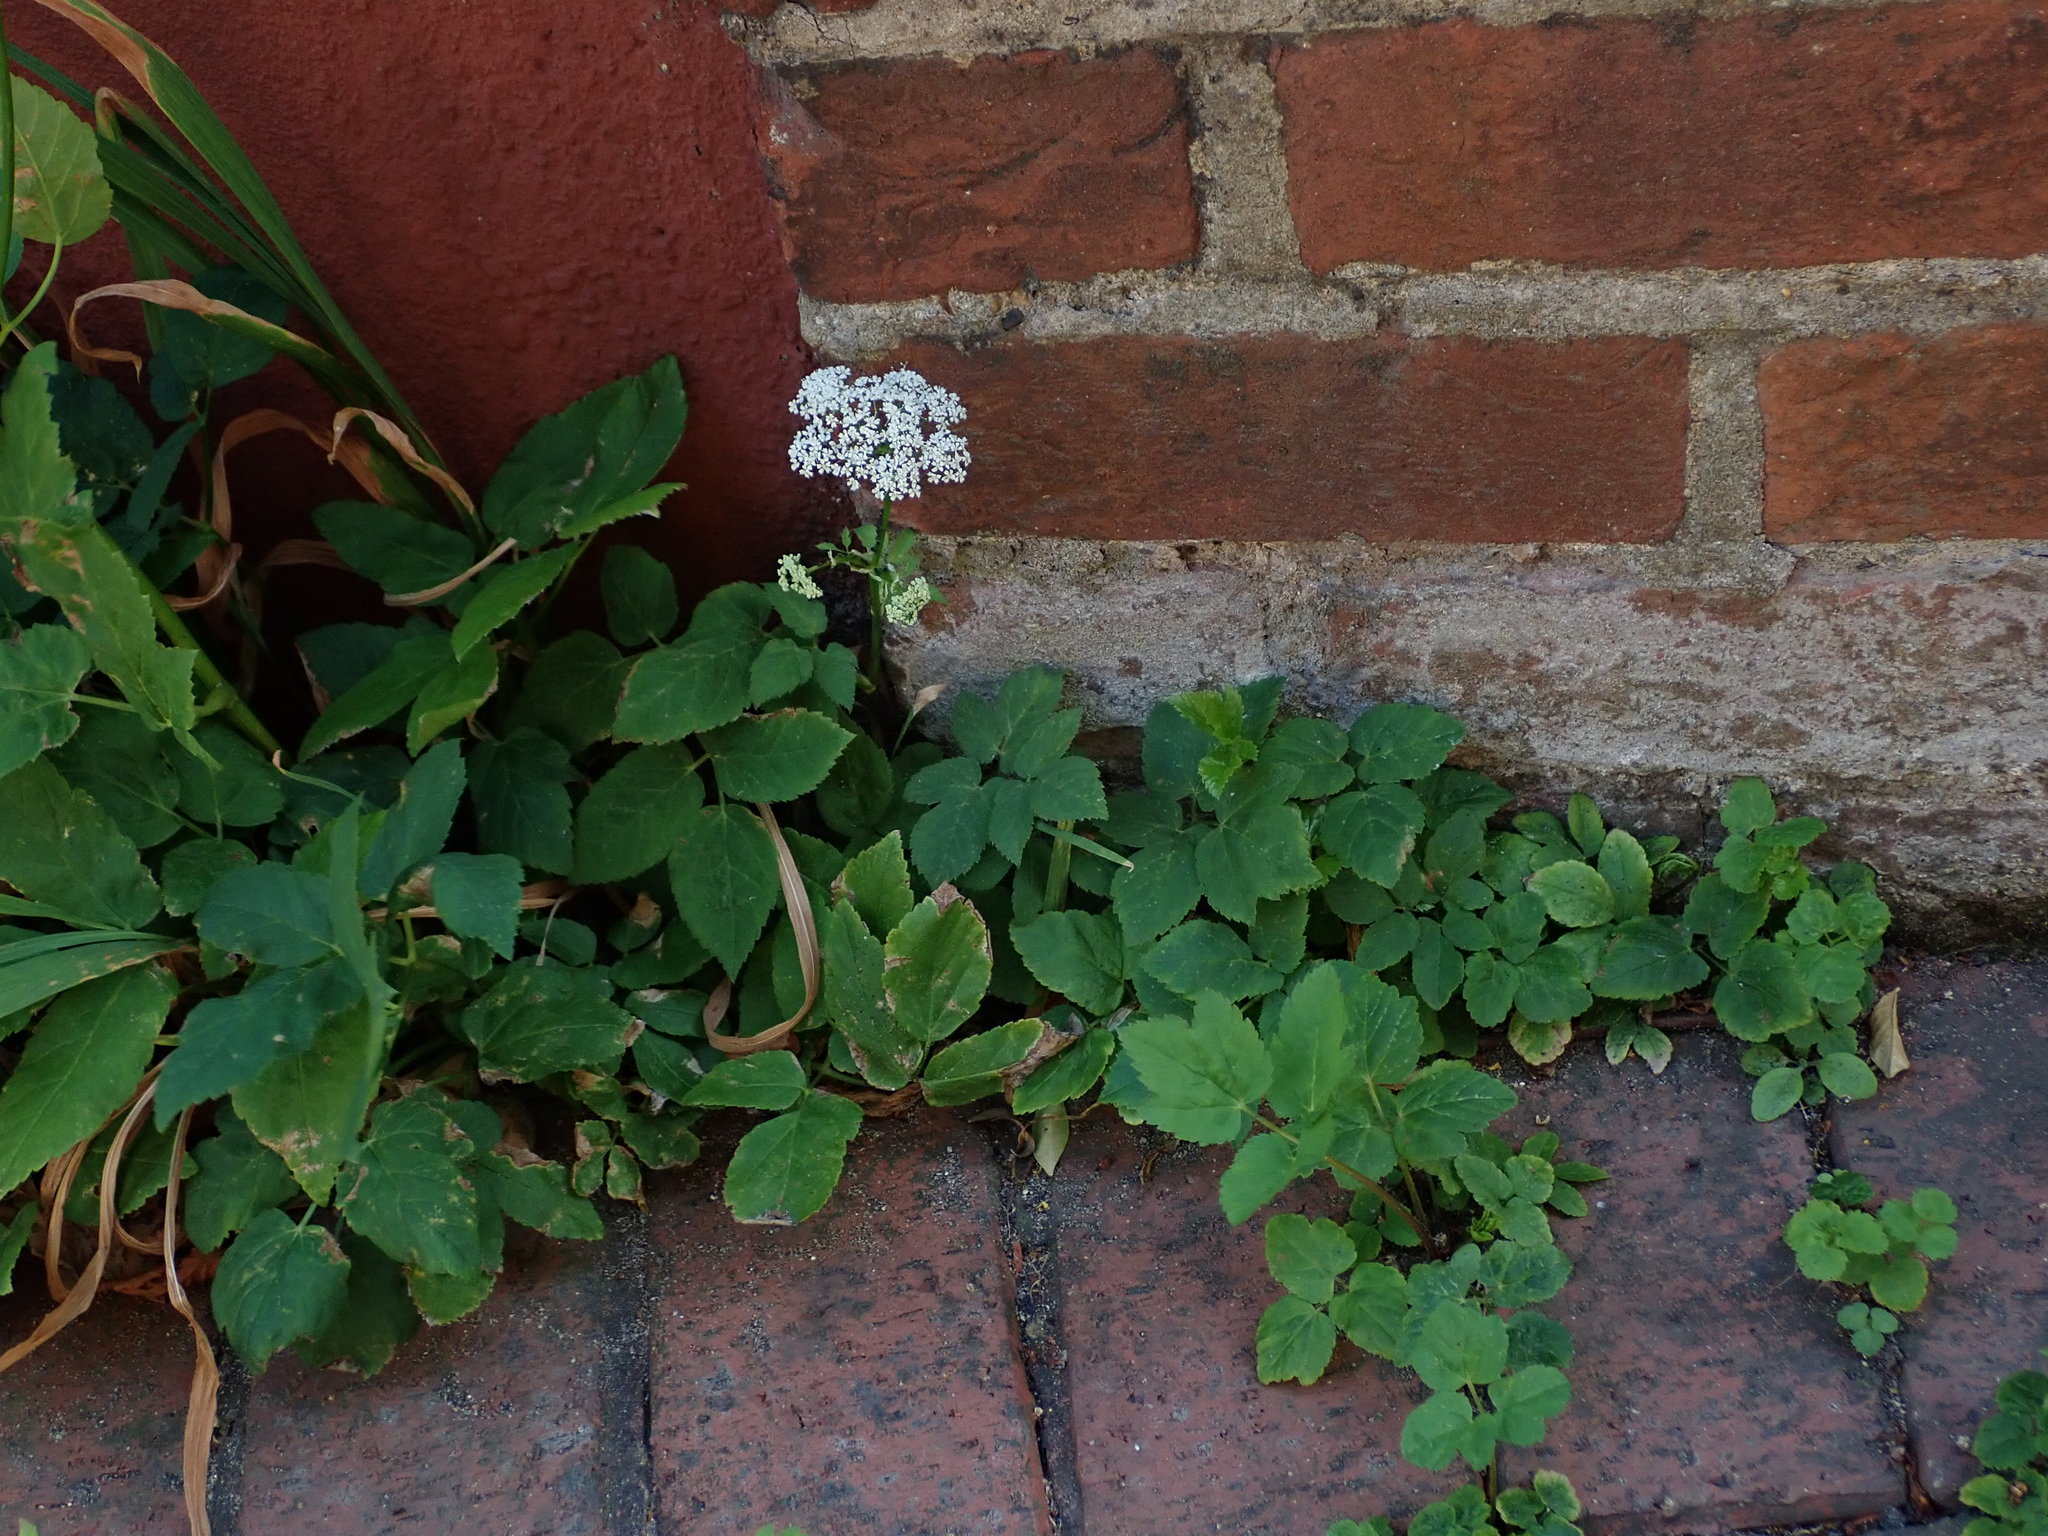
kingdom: Plantae
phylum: Tracheophyta
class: Magnoliopsida
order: Apiales
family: Apiaceae
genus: Aegopodium
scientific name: Aegopodium podagraria
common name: Ground-elder
